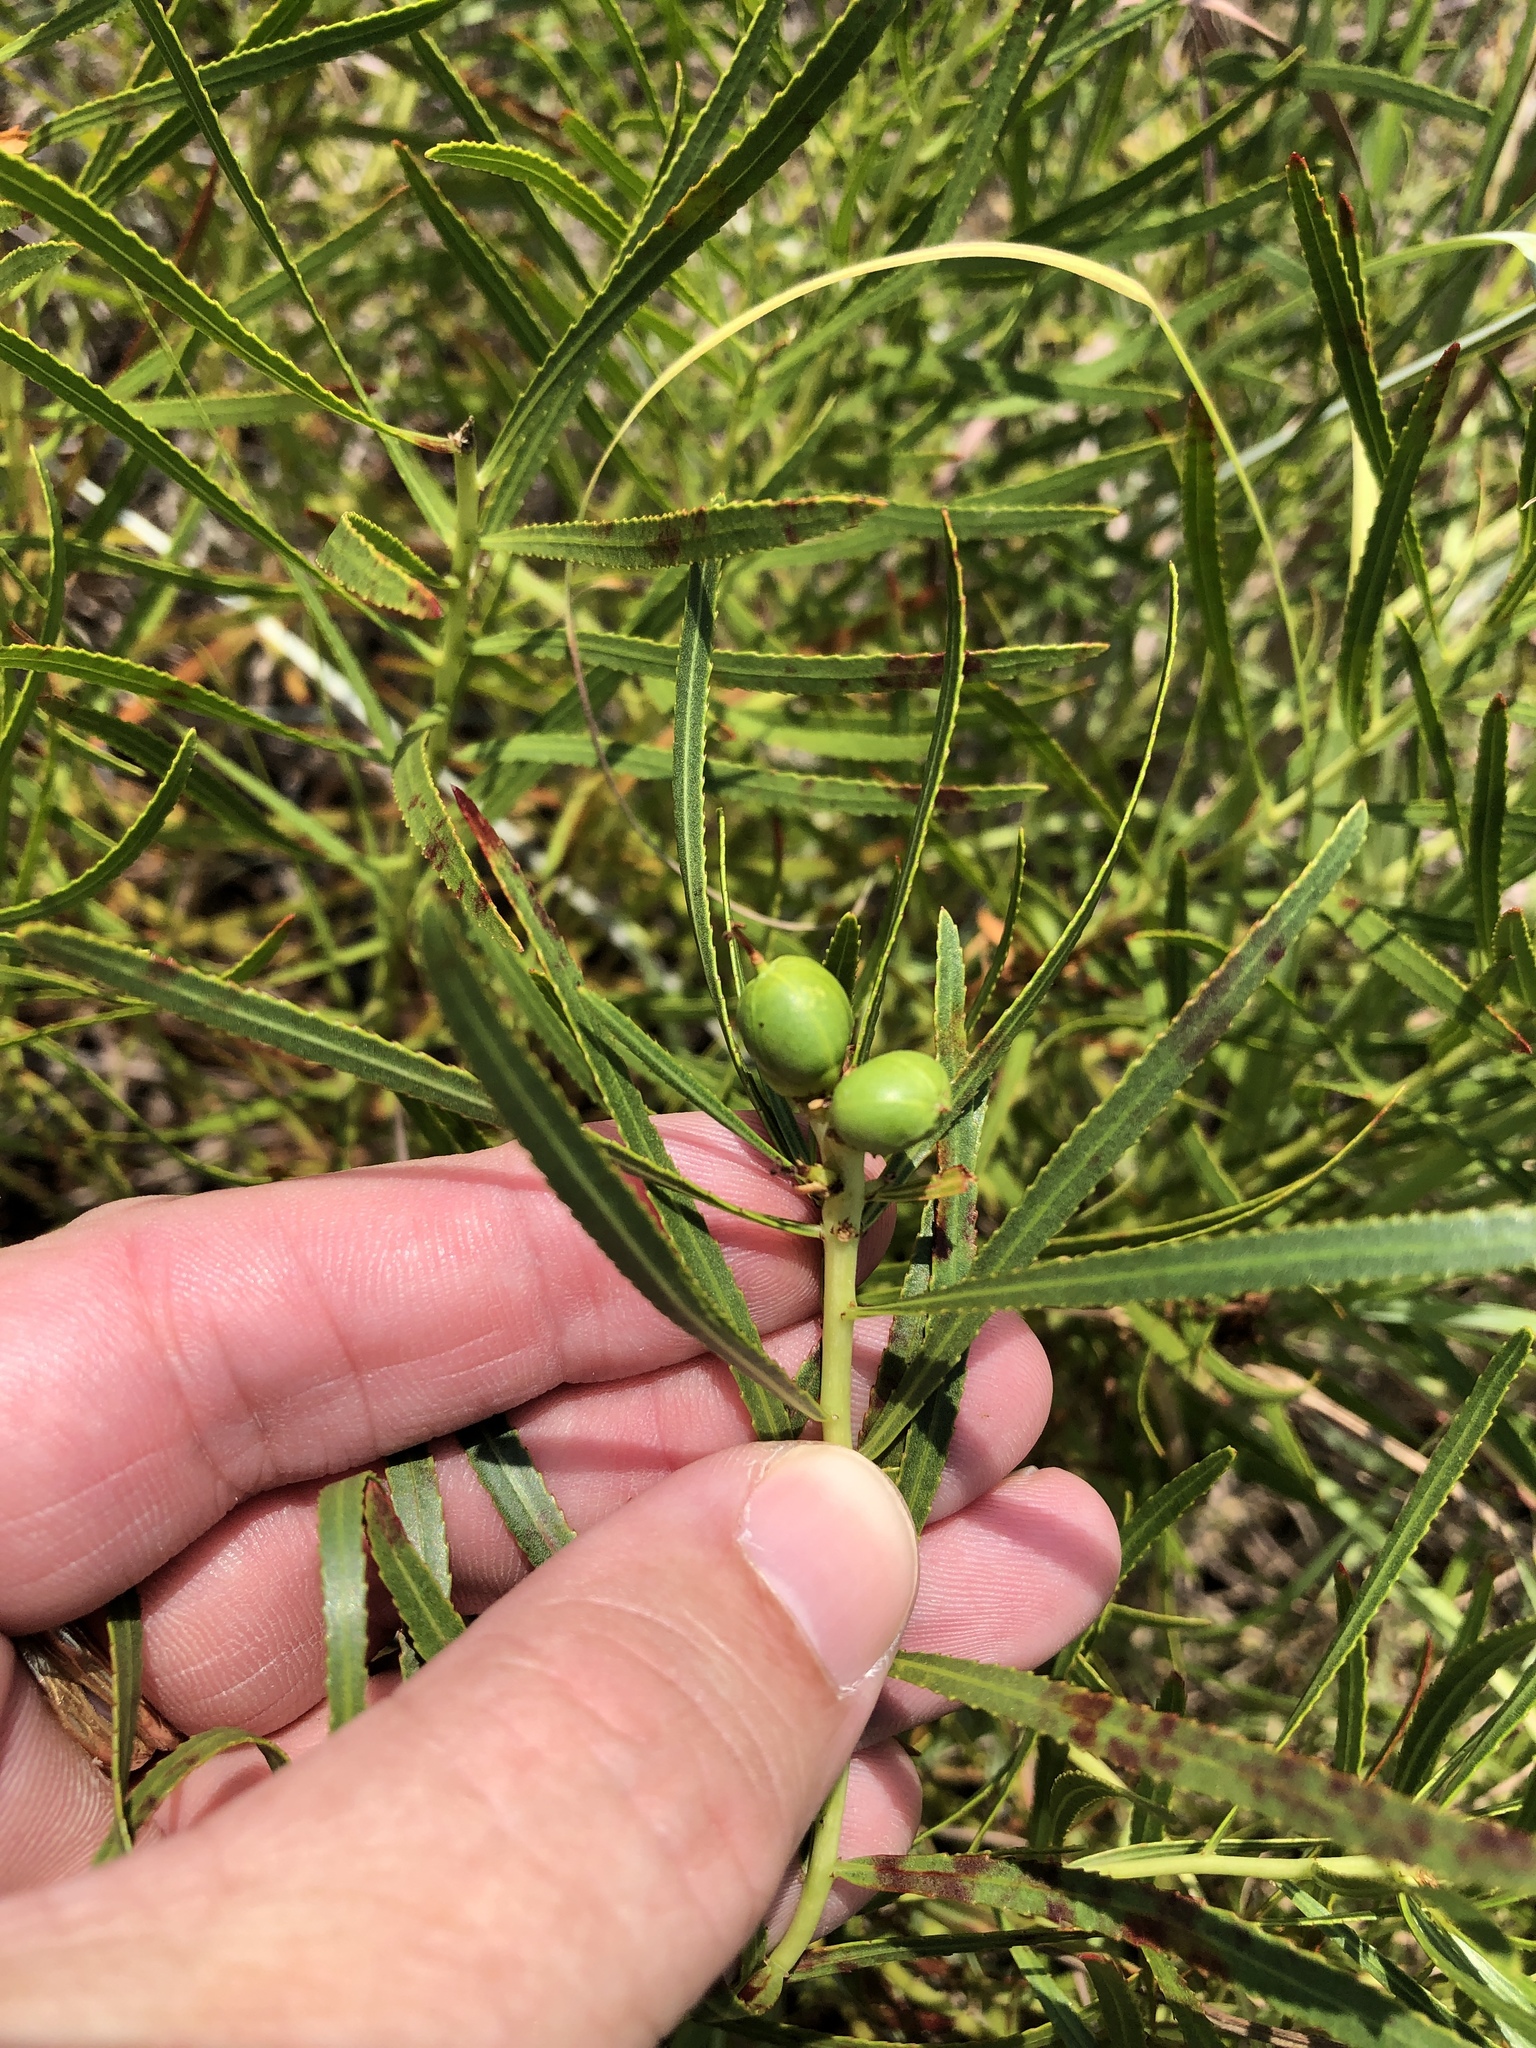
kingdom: Plantae
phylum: Tracheophyta
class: Magnoliopsida
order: Malpighiales
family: Euphorbiaceae
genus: Stillingia
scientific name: Stillingia texana
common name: Texas stillingia
